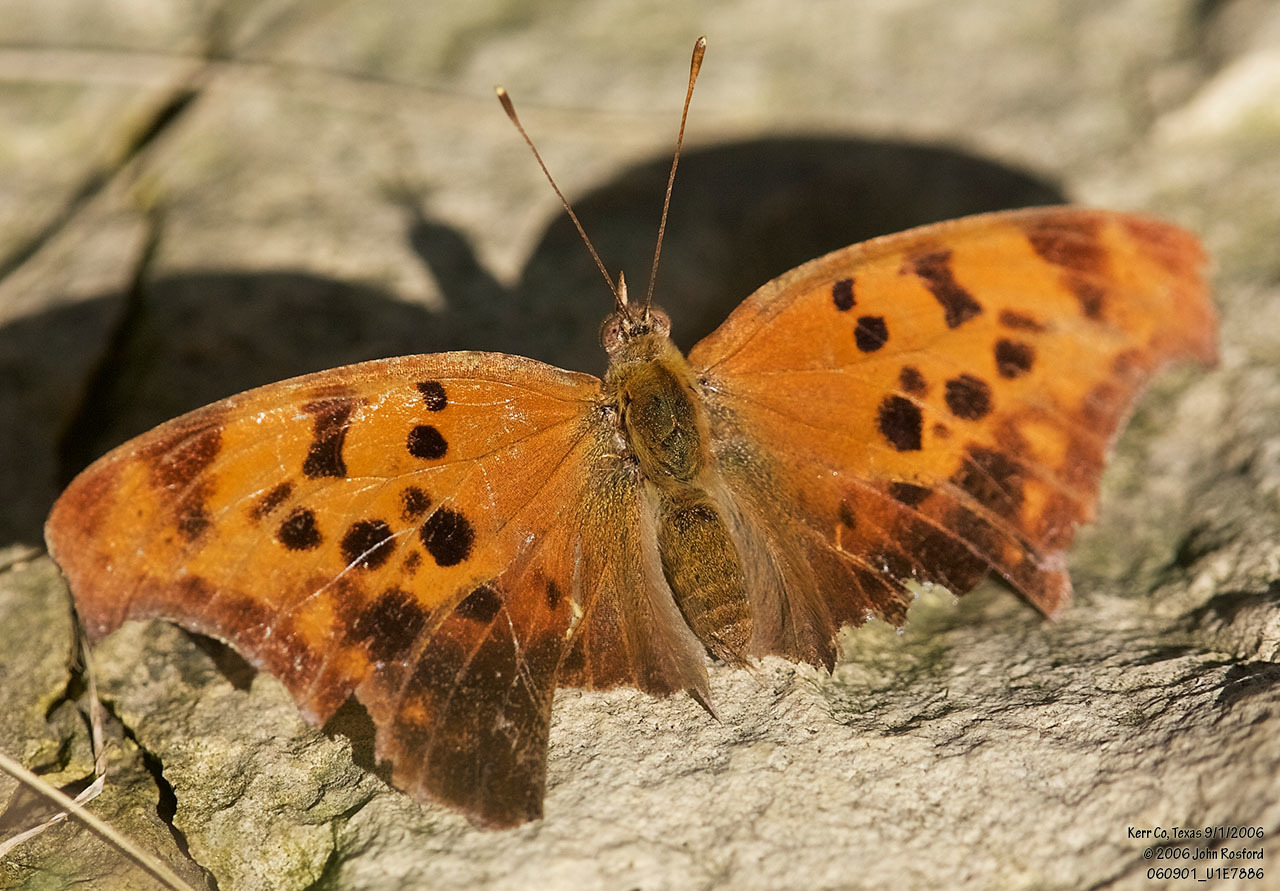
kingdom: Animalia
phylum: Arthropoda
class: Insecta
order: Lepidoptera
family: Nymphalidae
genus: Polygonia
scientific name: Polygonia interrogationis
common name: Question mark
